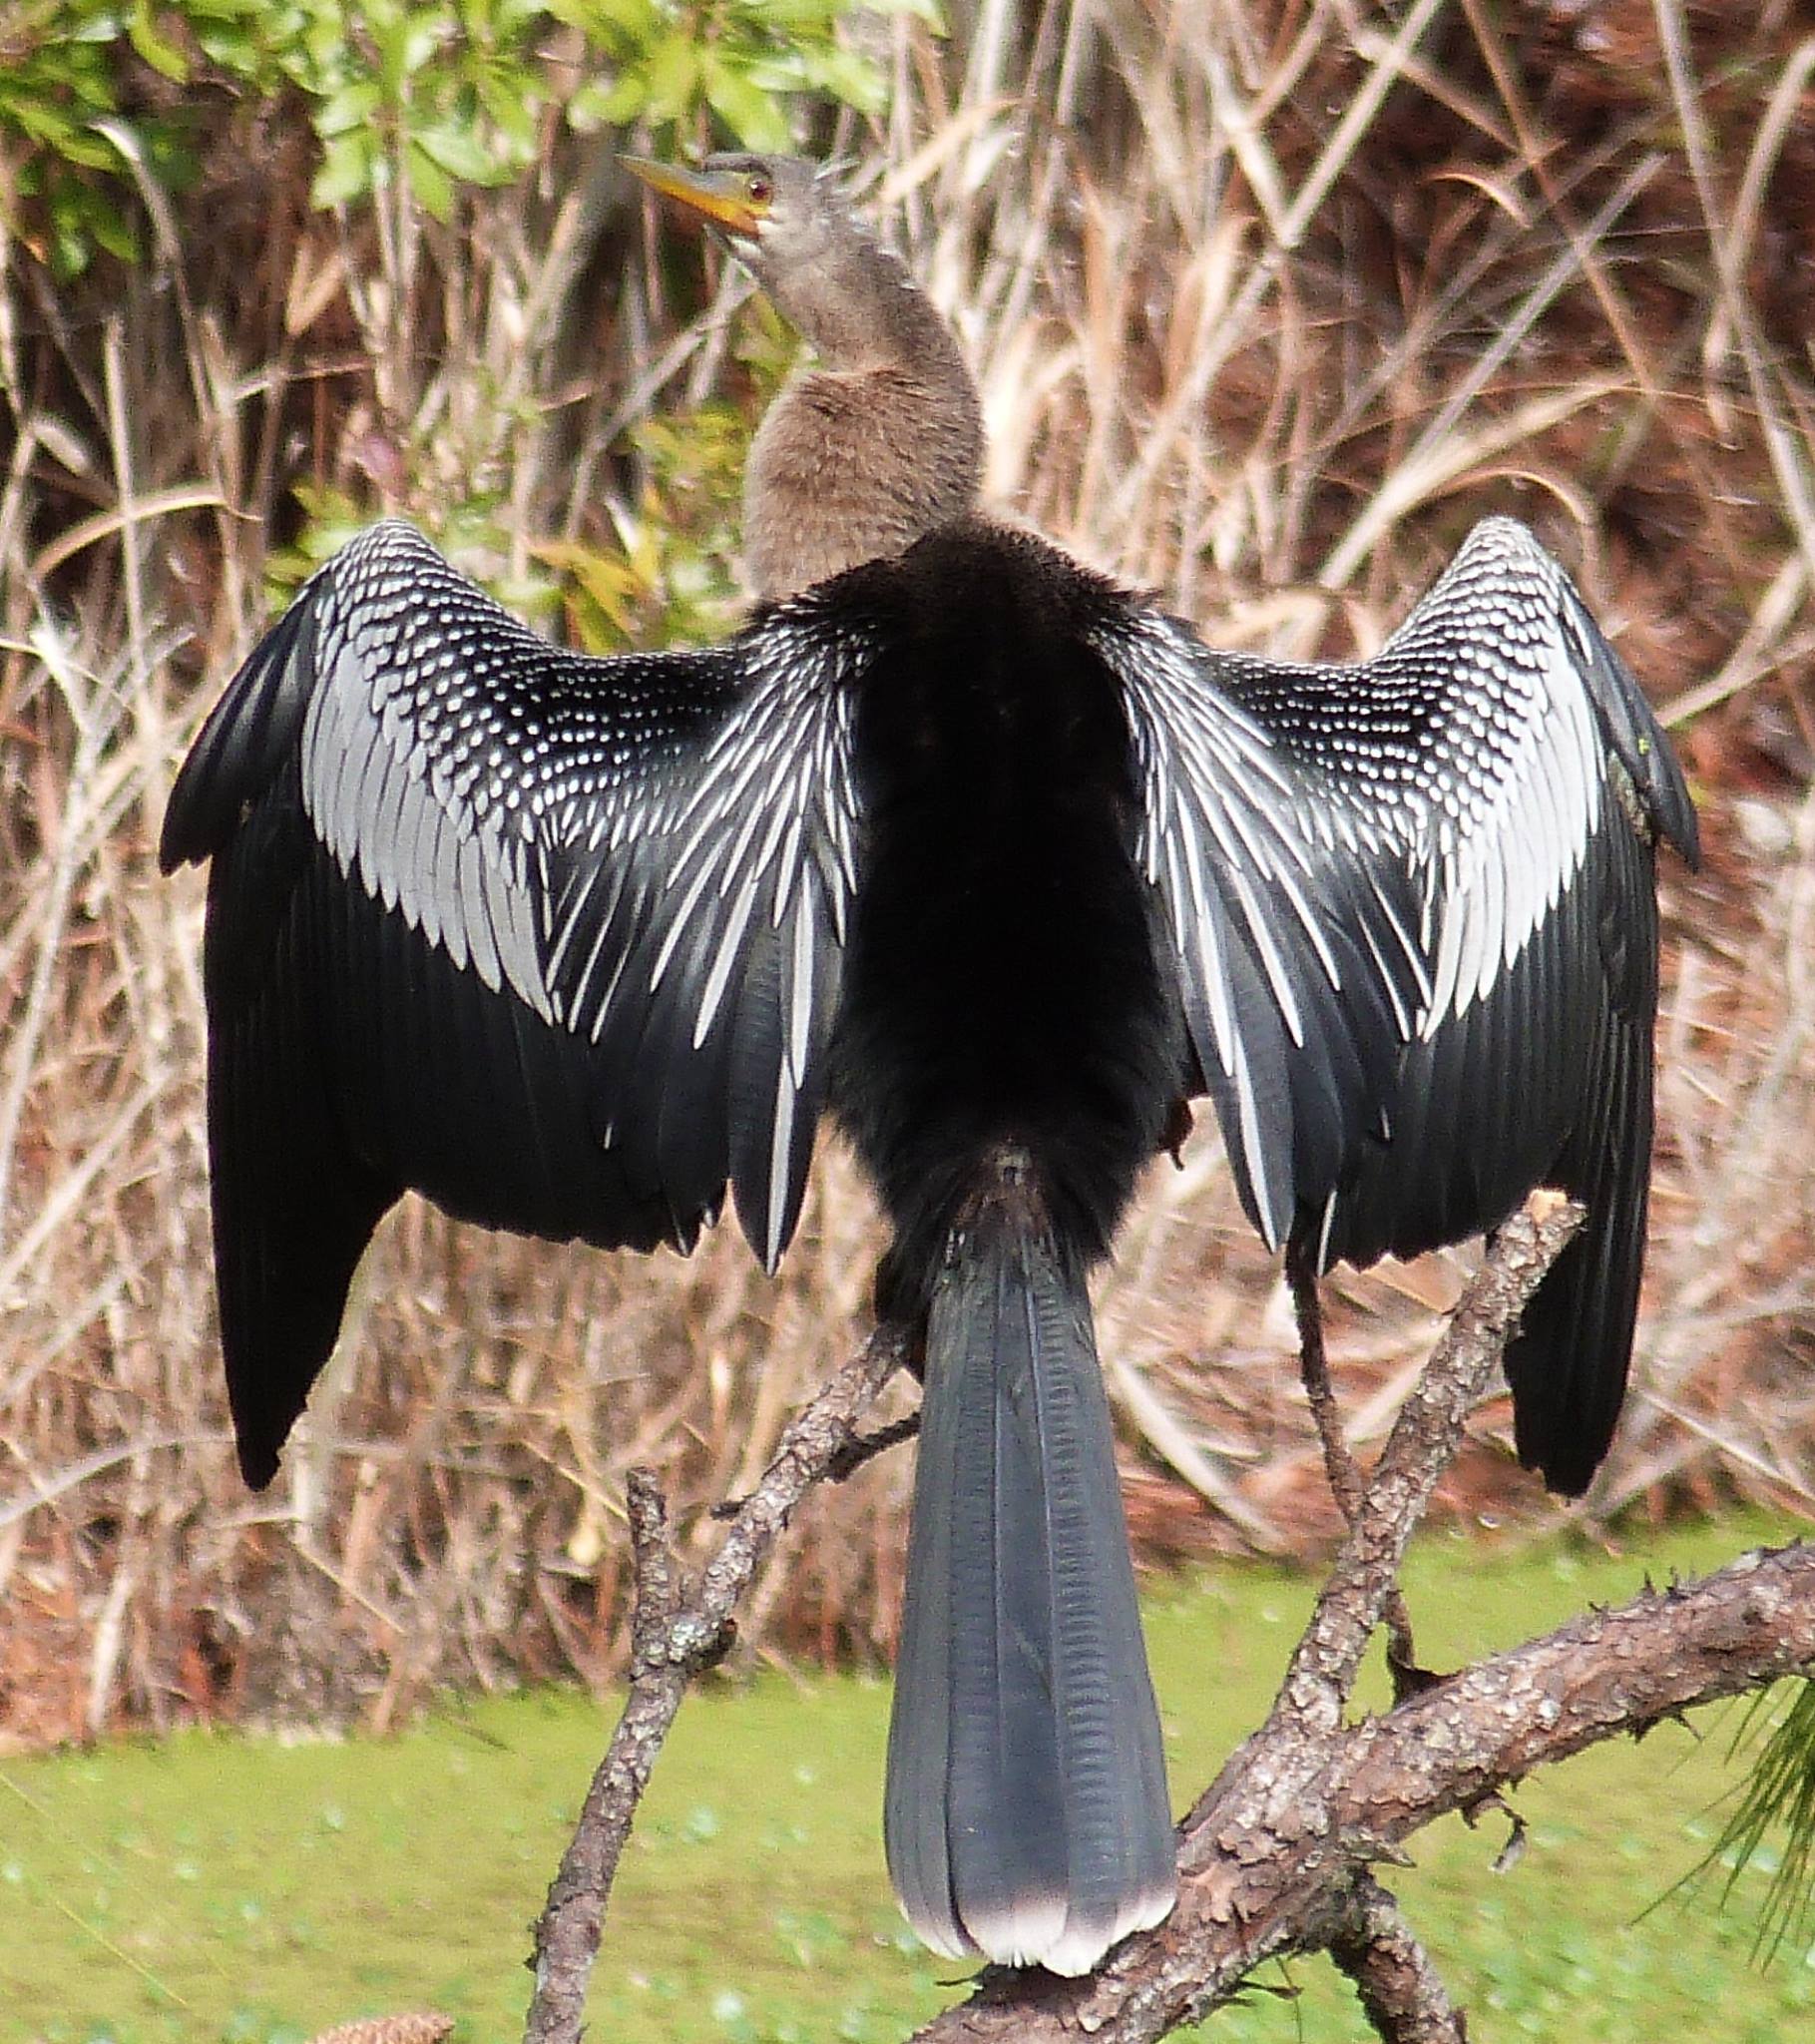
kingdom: Animalia
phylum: Chordata
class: Aves
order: Suliformes
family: Anhingidae
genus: Anhinga
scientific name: Anhinga anhinga
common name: Anhinga
